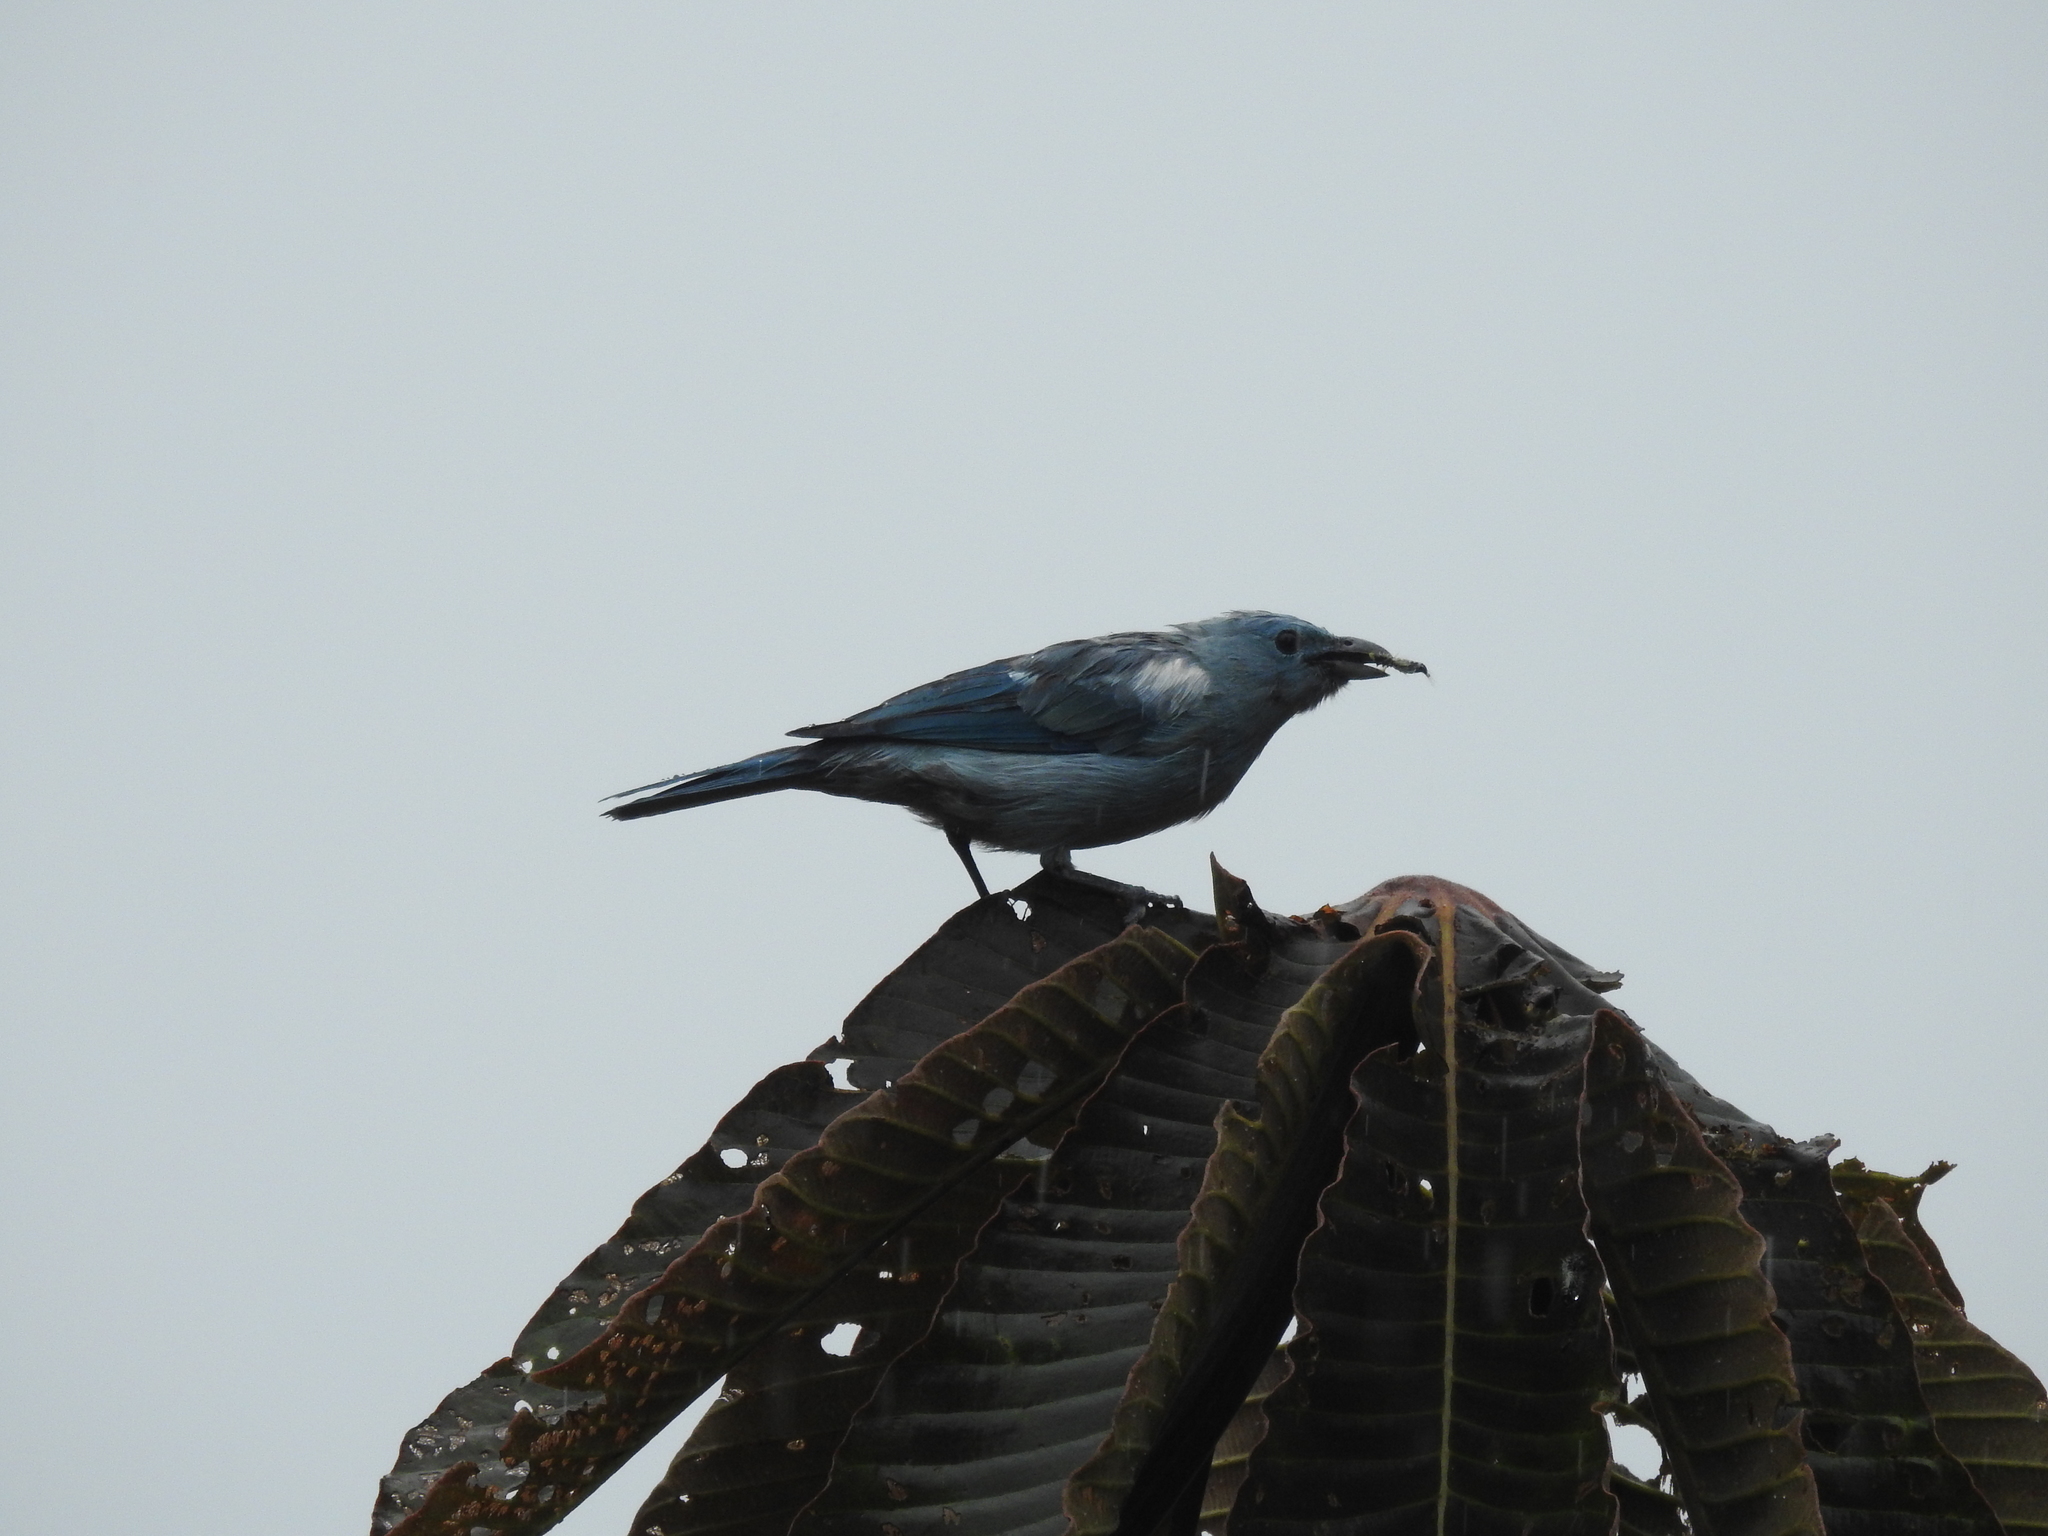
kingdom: Animalia
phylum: Chordata
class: Aves
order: Passeriformes
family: Thraupidae
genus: Thraupis
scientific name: Thraupis episcopus
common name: Blue-grey tanager
